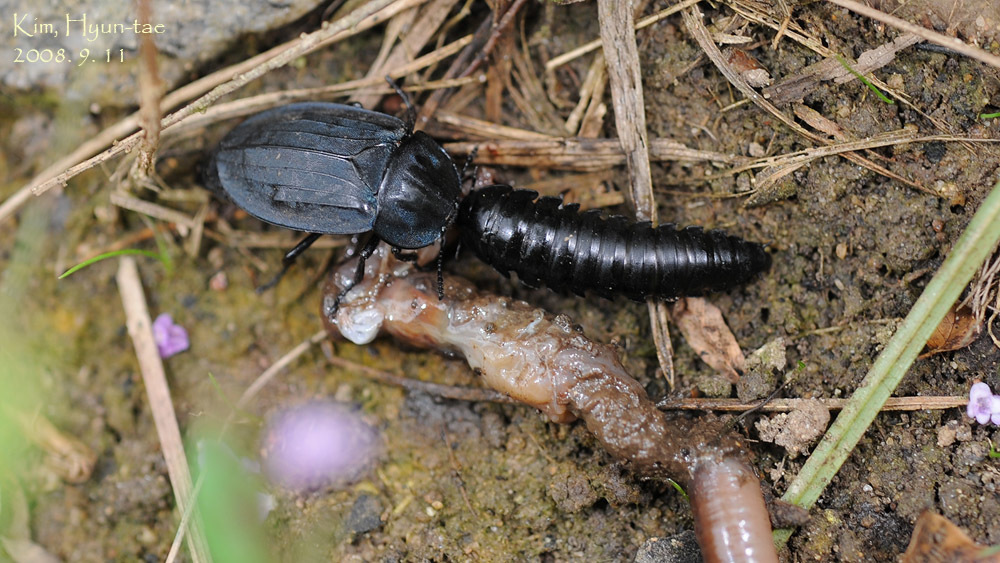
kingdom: Animalia
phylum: Arthropoda
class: Insecta
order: Coleoptera
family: Silphidae
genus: Eusilpha
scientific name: Eusilpha
